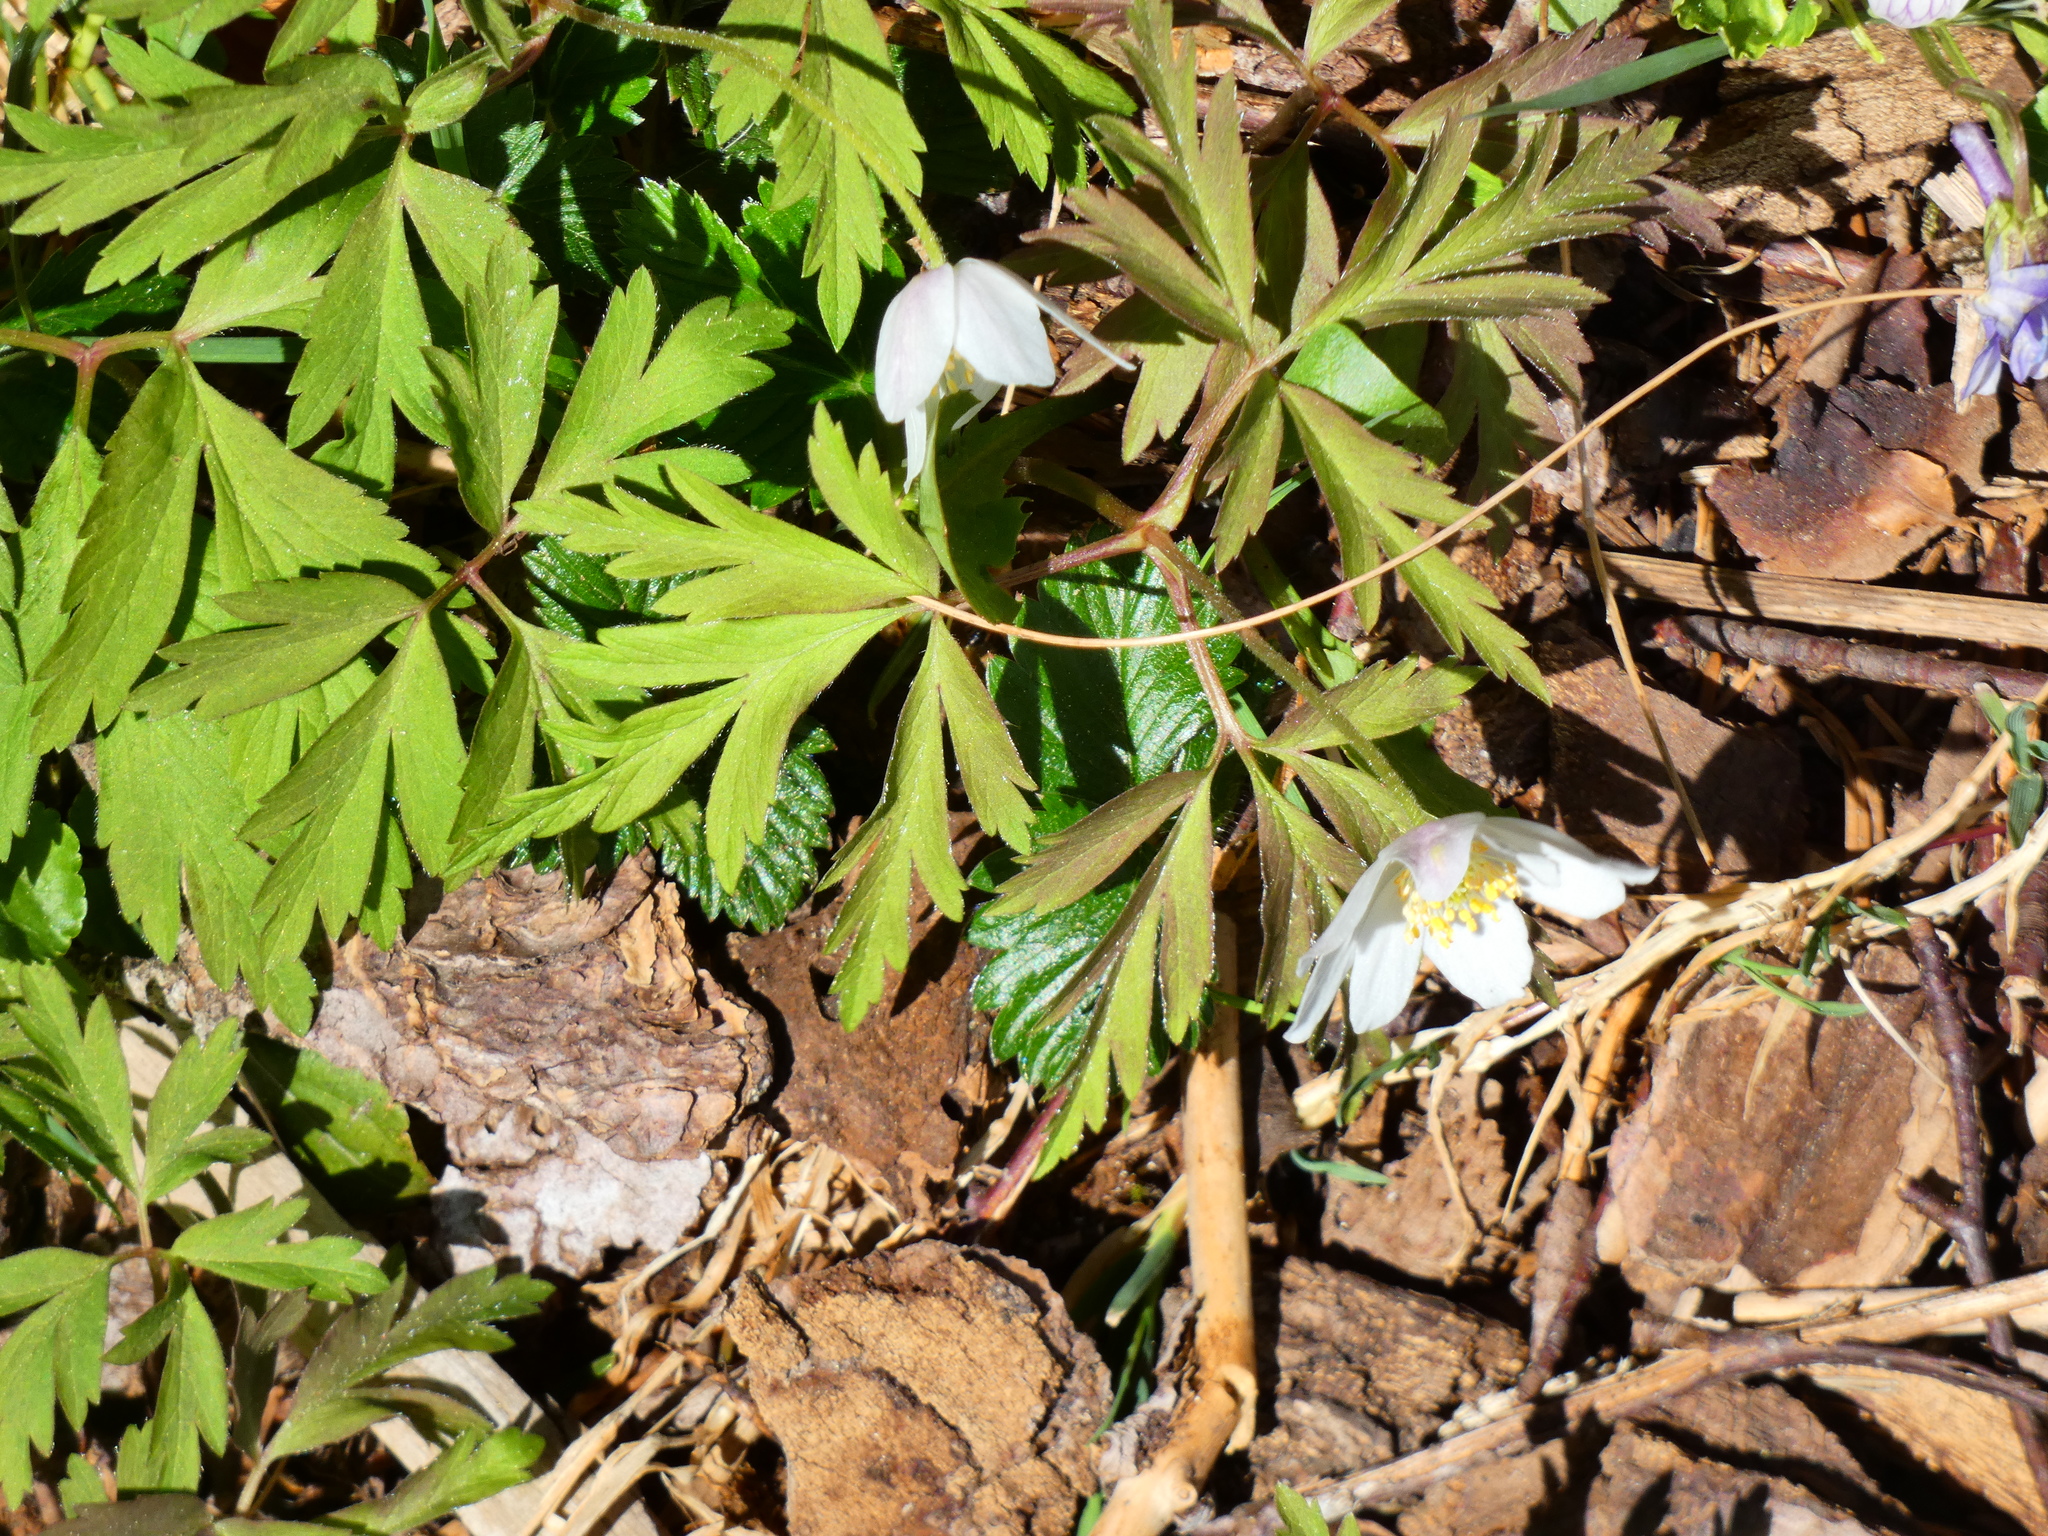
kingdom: Plantae
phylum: Tracheophyta
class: Magnoliopsida
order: Ranunculales
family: Ranunculaceae
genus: Anemone
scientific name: Anemone nemorosa
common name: Wood anemone
